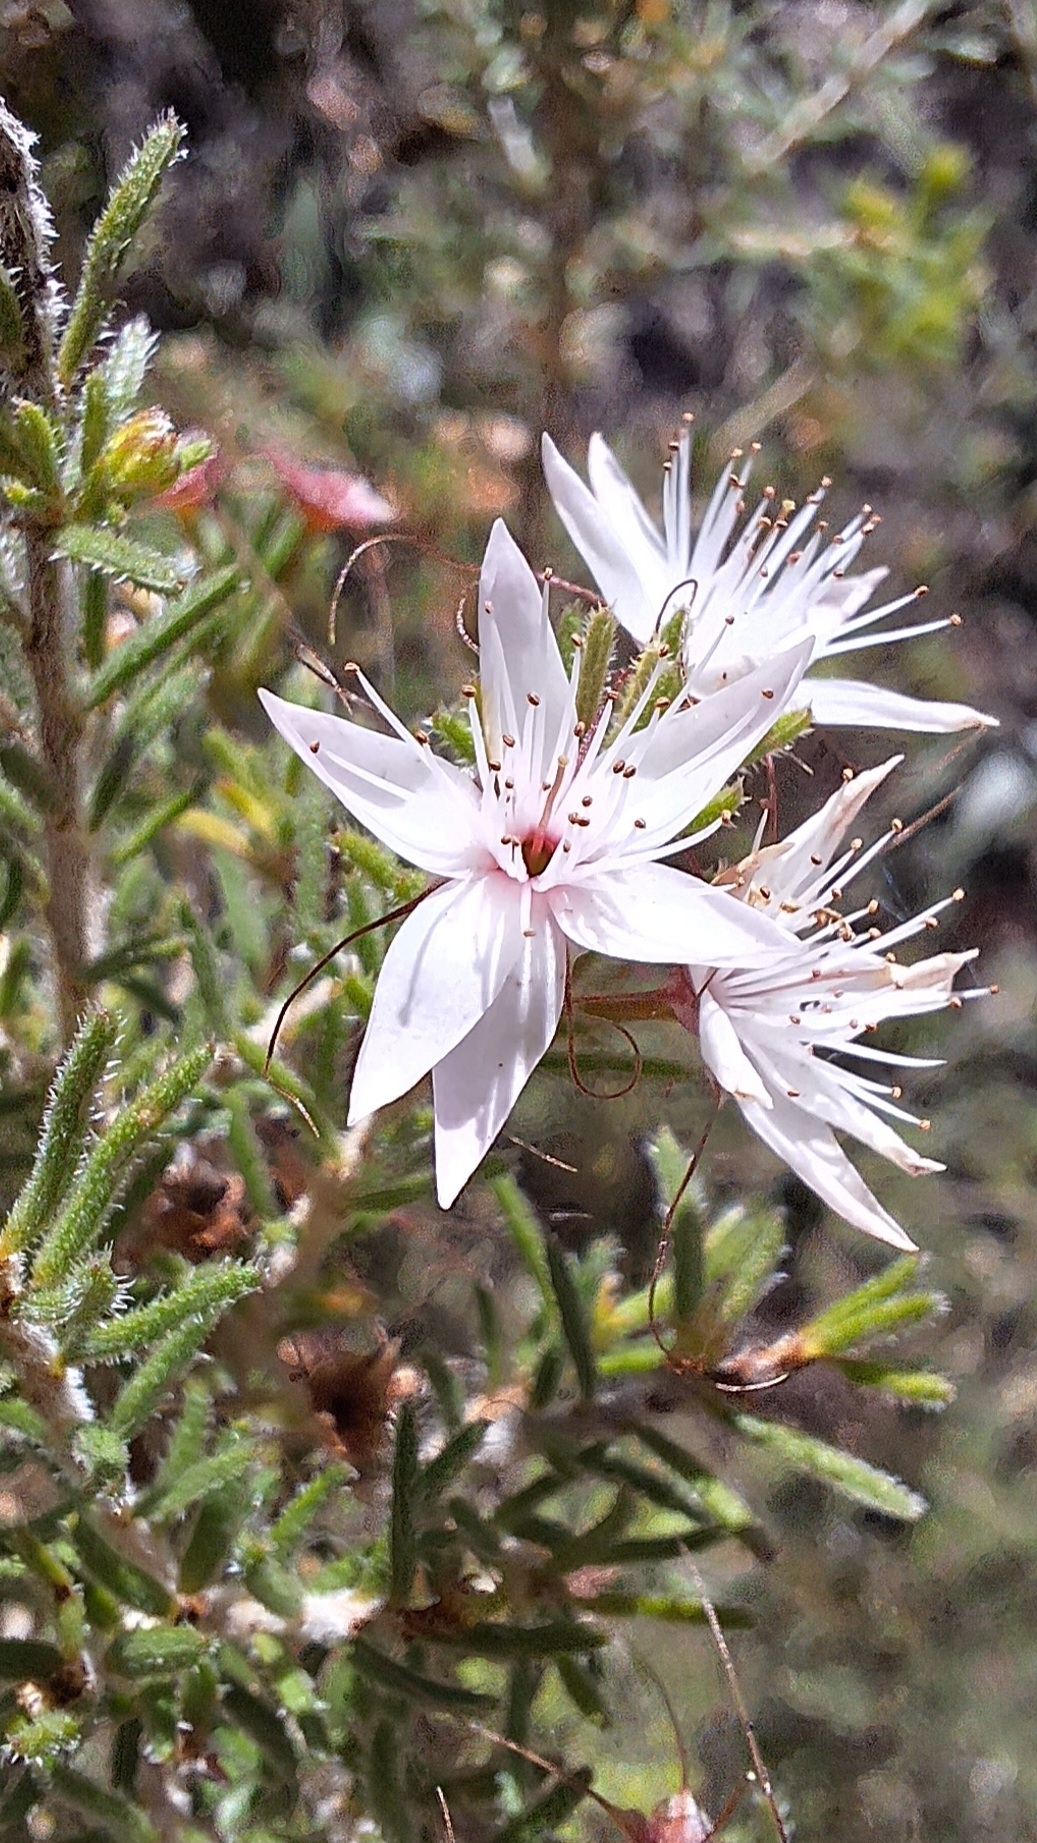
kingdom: Plantae
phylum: Tracheophyta
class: Magnoliopsida
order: Myrtales
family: Myrtaceae
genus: Calytrix
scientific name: Calytrix tetragona
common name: Common fringe myrtle
